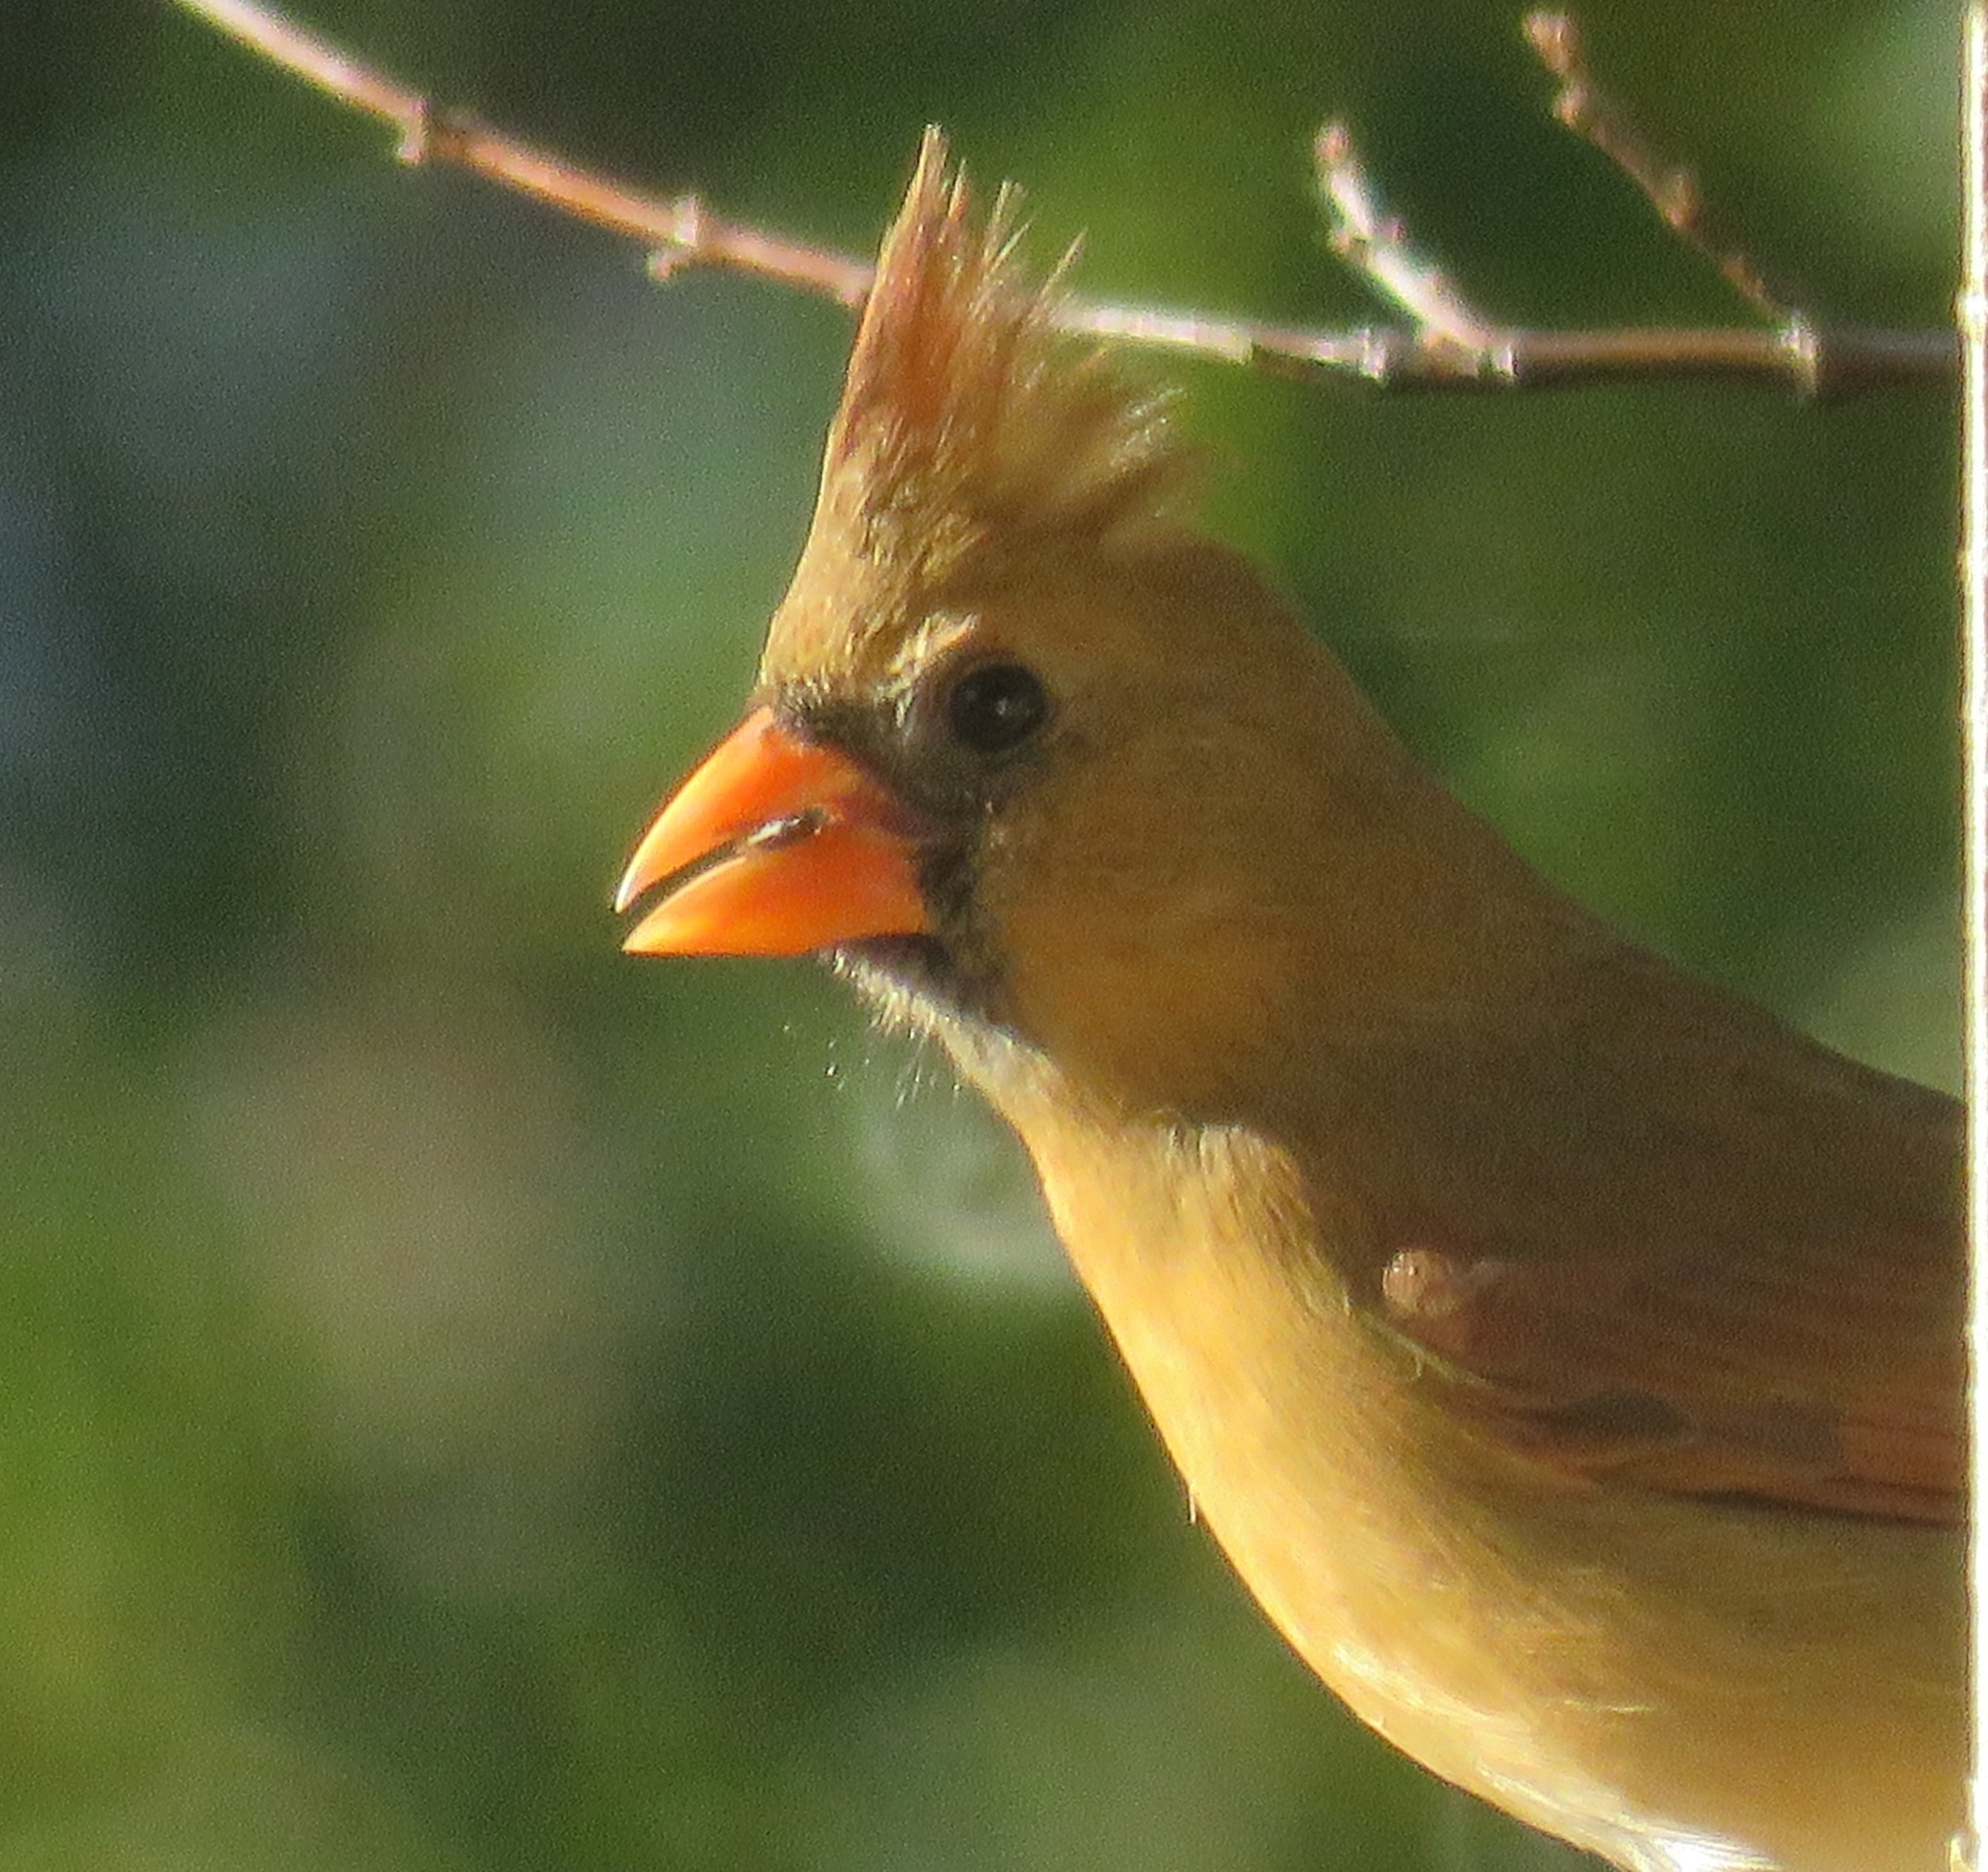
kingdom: Animalia
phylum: Chordata
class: Aves
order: Passeriformes
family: Cardinalidae
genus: Cardinalis
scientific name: Cardinalis cardinalis
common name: Northern cardinal
